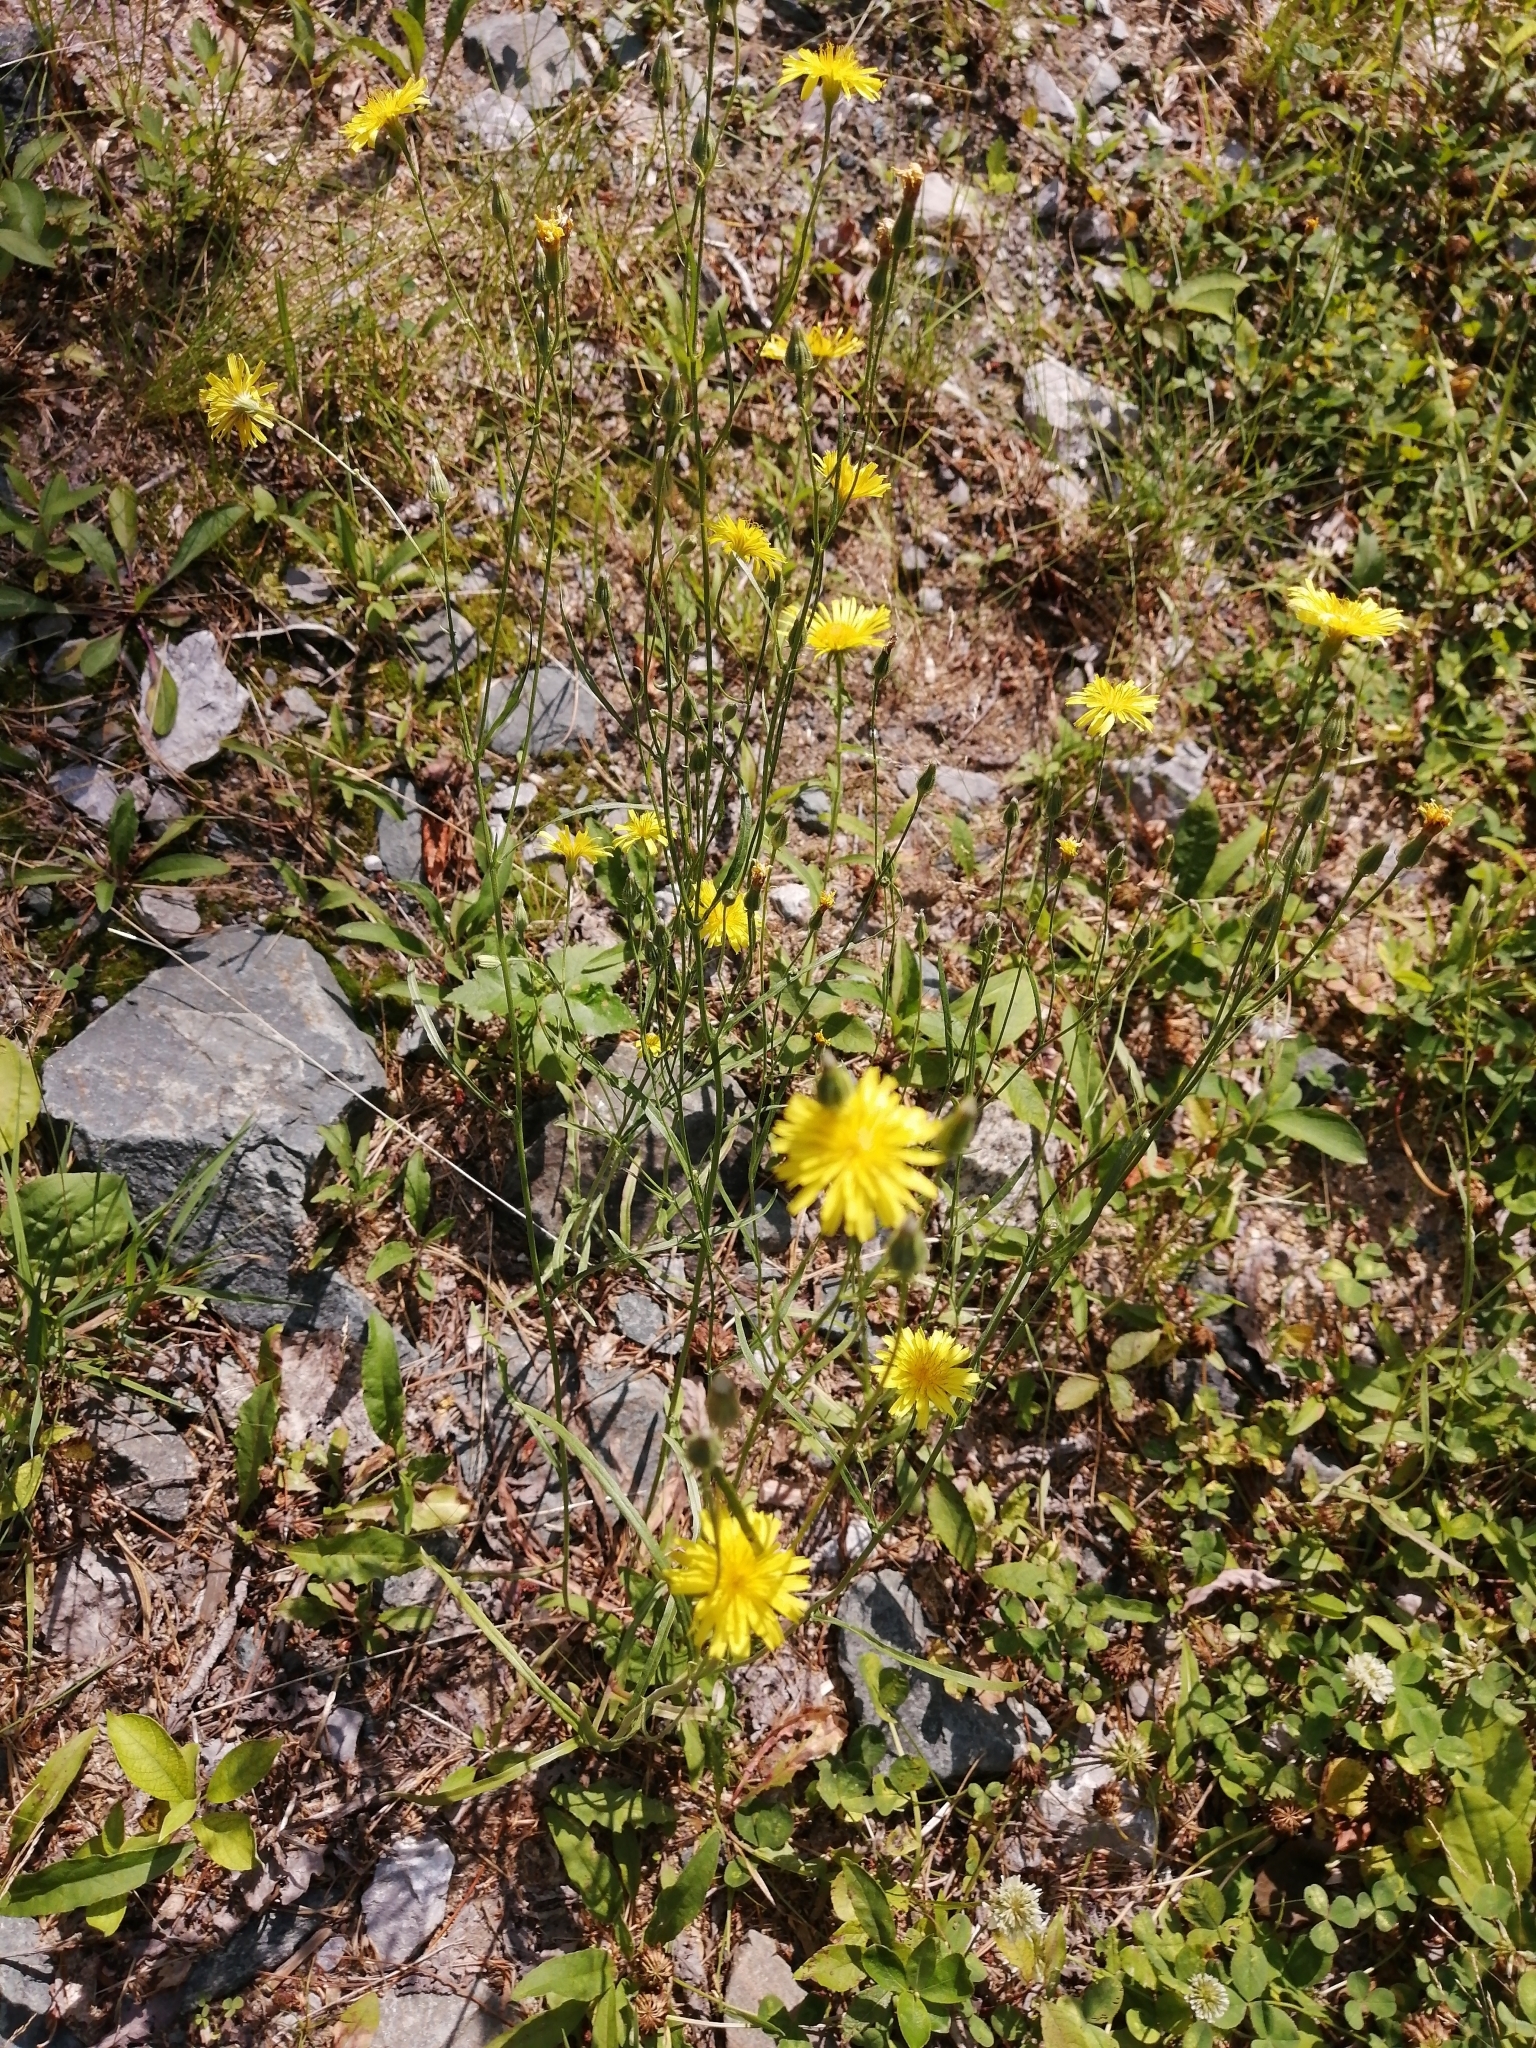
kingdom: Plantae
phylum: Tracheophyta
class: Magnoliopsida
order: Asterales
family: Asteraceae
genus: Crepis
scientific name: Crepis tectorum
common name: Narrow-leaved hawk's-beard
